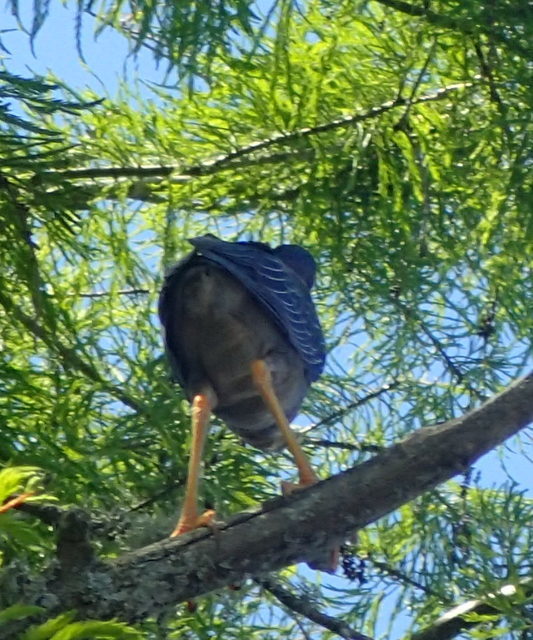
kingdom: Animalia
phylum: Chordata
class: Aves
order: Pelecaniformes
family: Ardeidae
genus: Butorides
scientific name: Butorides virescens
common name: Green heron
